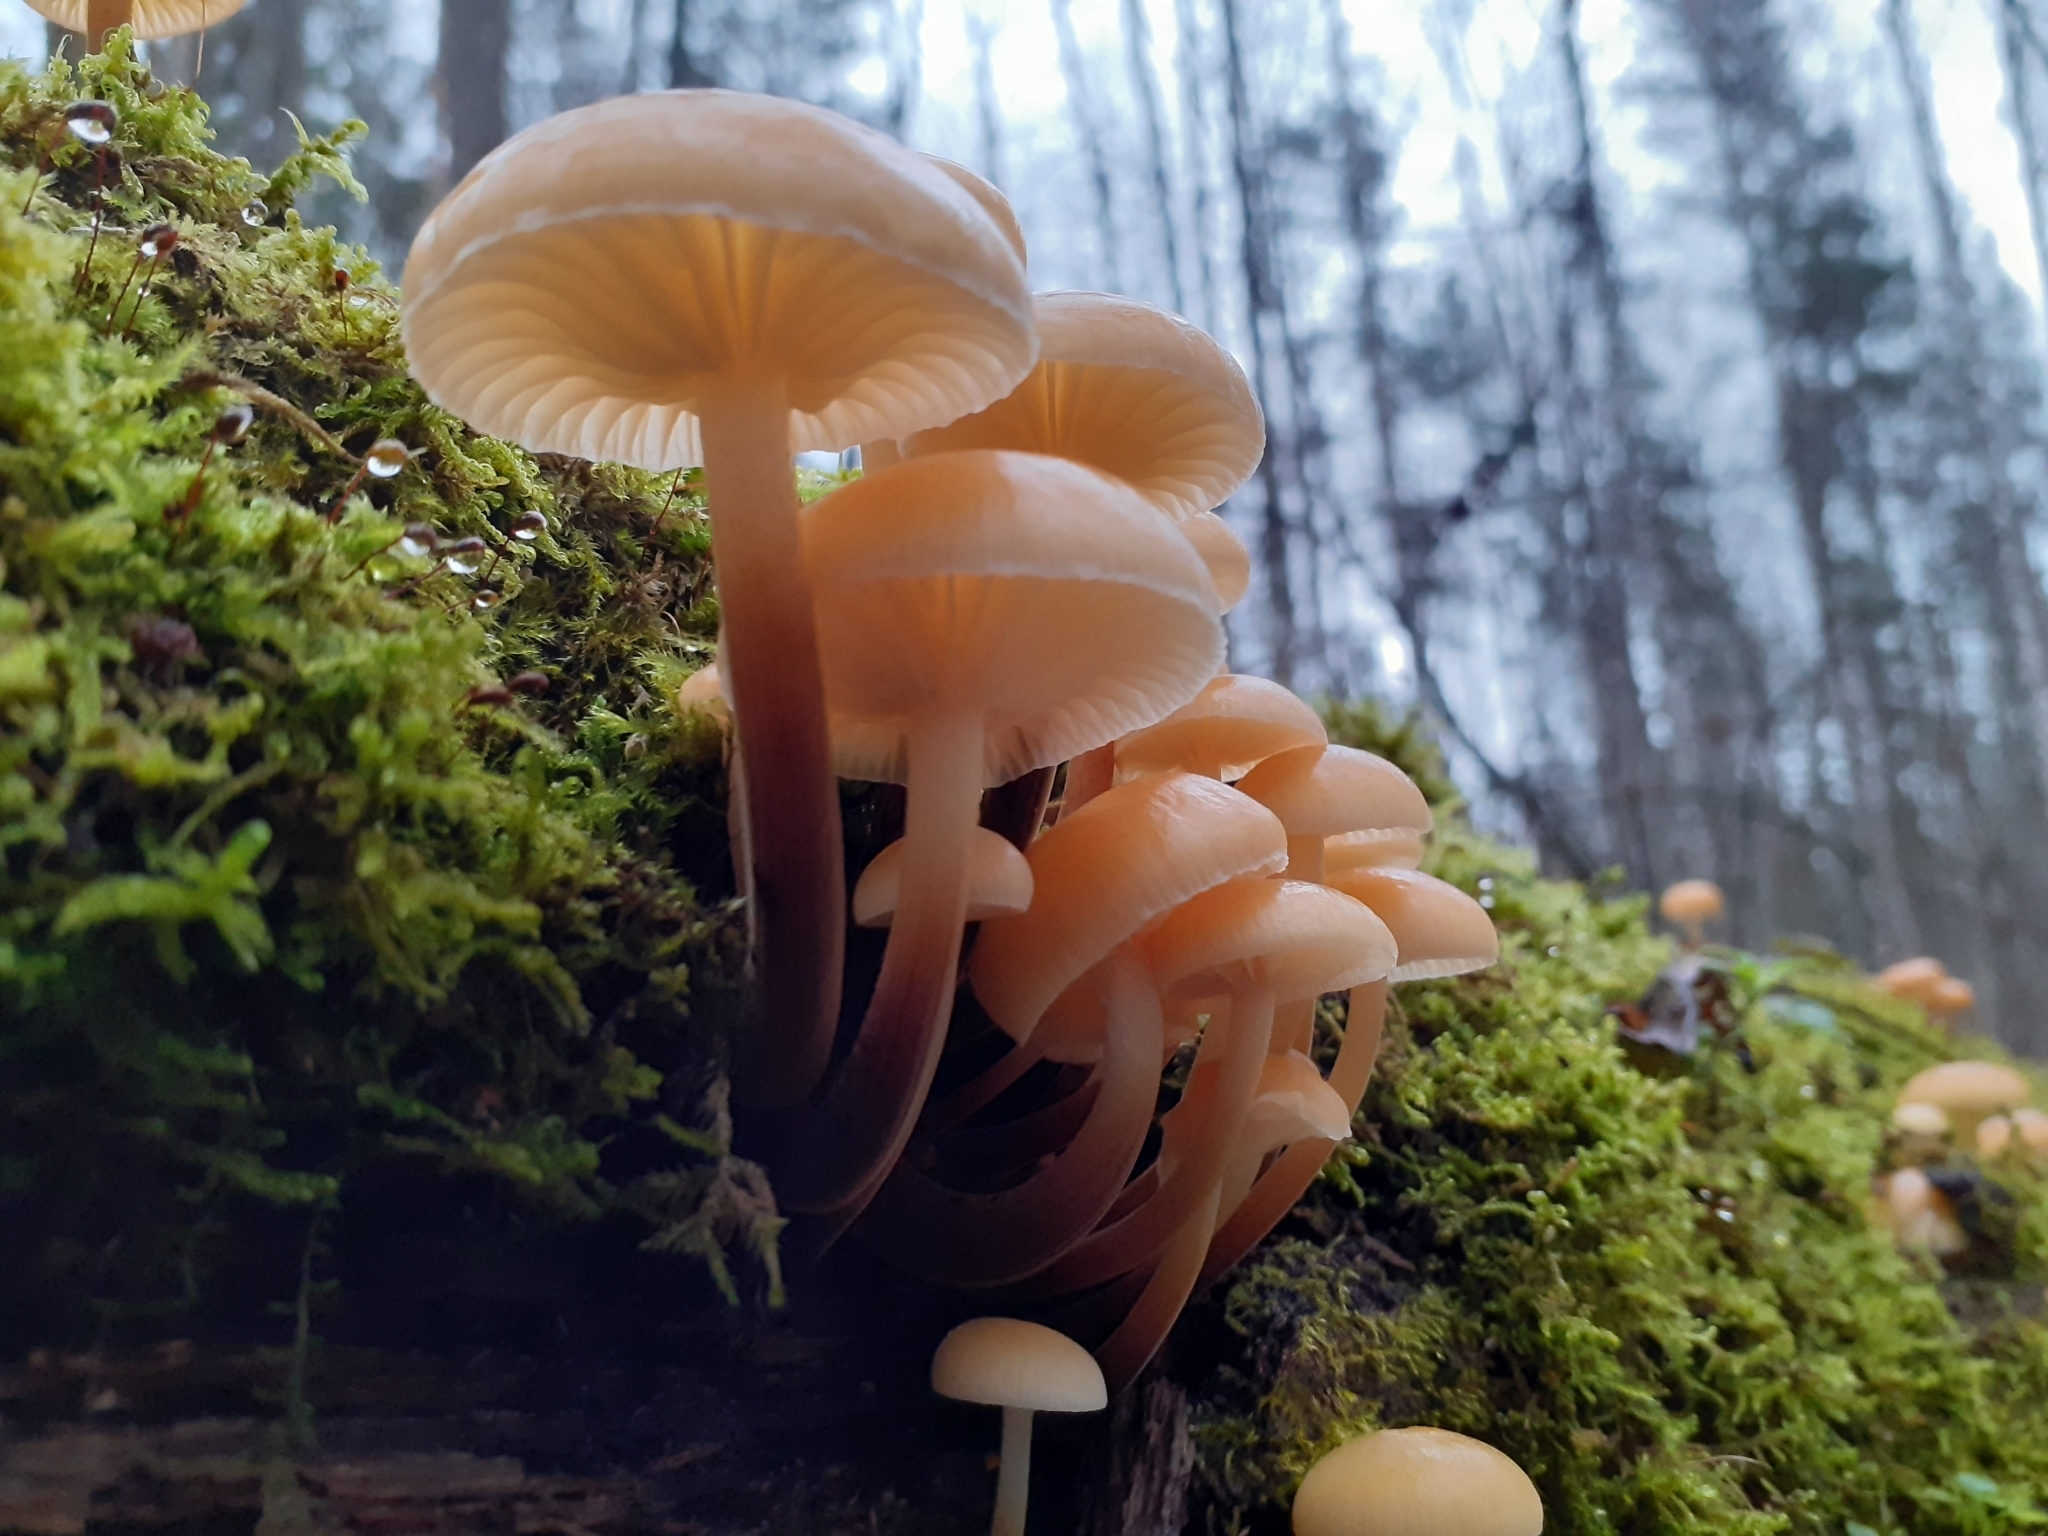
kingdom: Fungi
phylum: Basidiomycota
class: Agaricomycetes
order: Agaricales
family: Physalacriaceae
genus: Flammulina
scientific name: Flammulina
